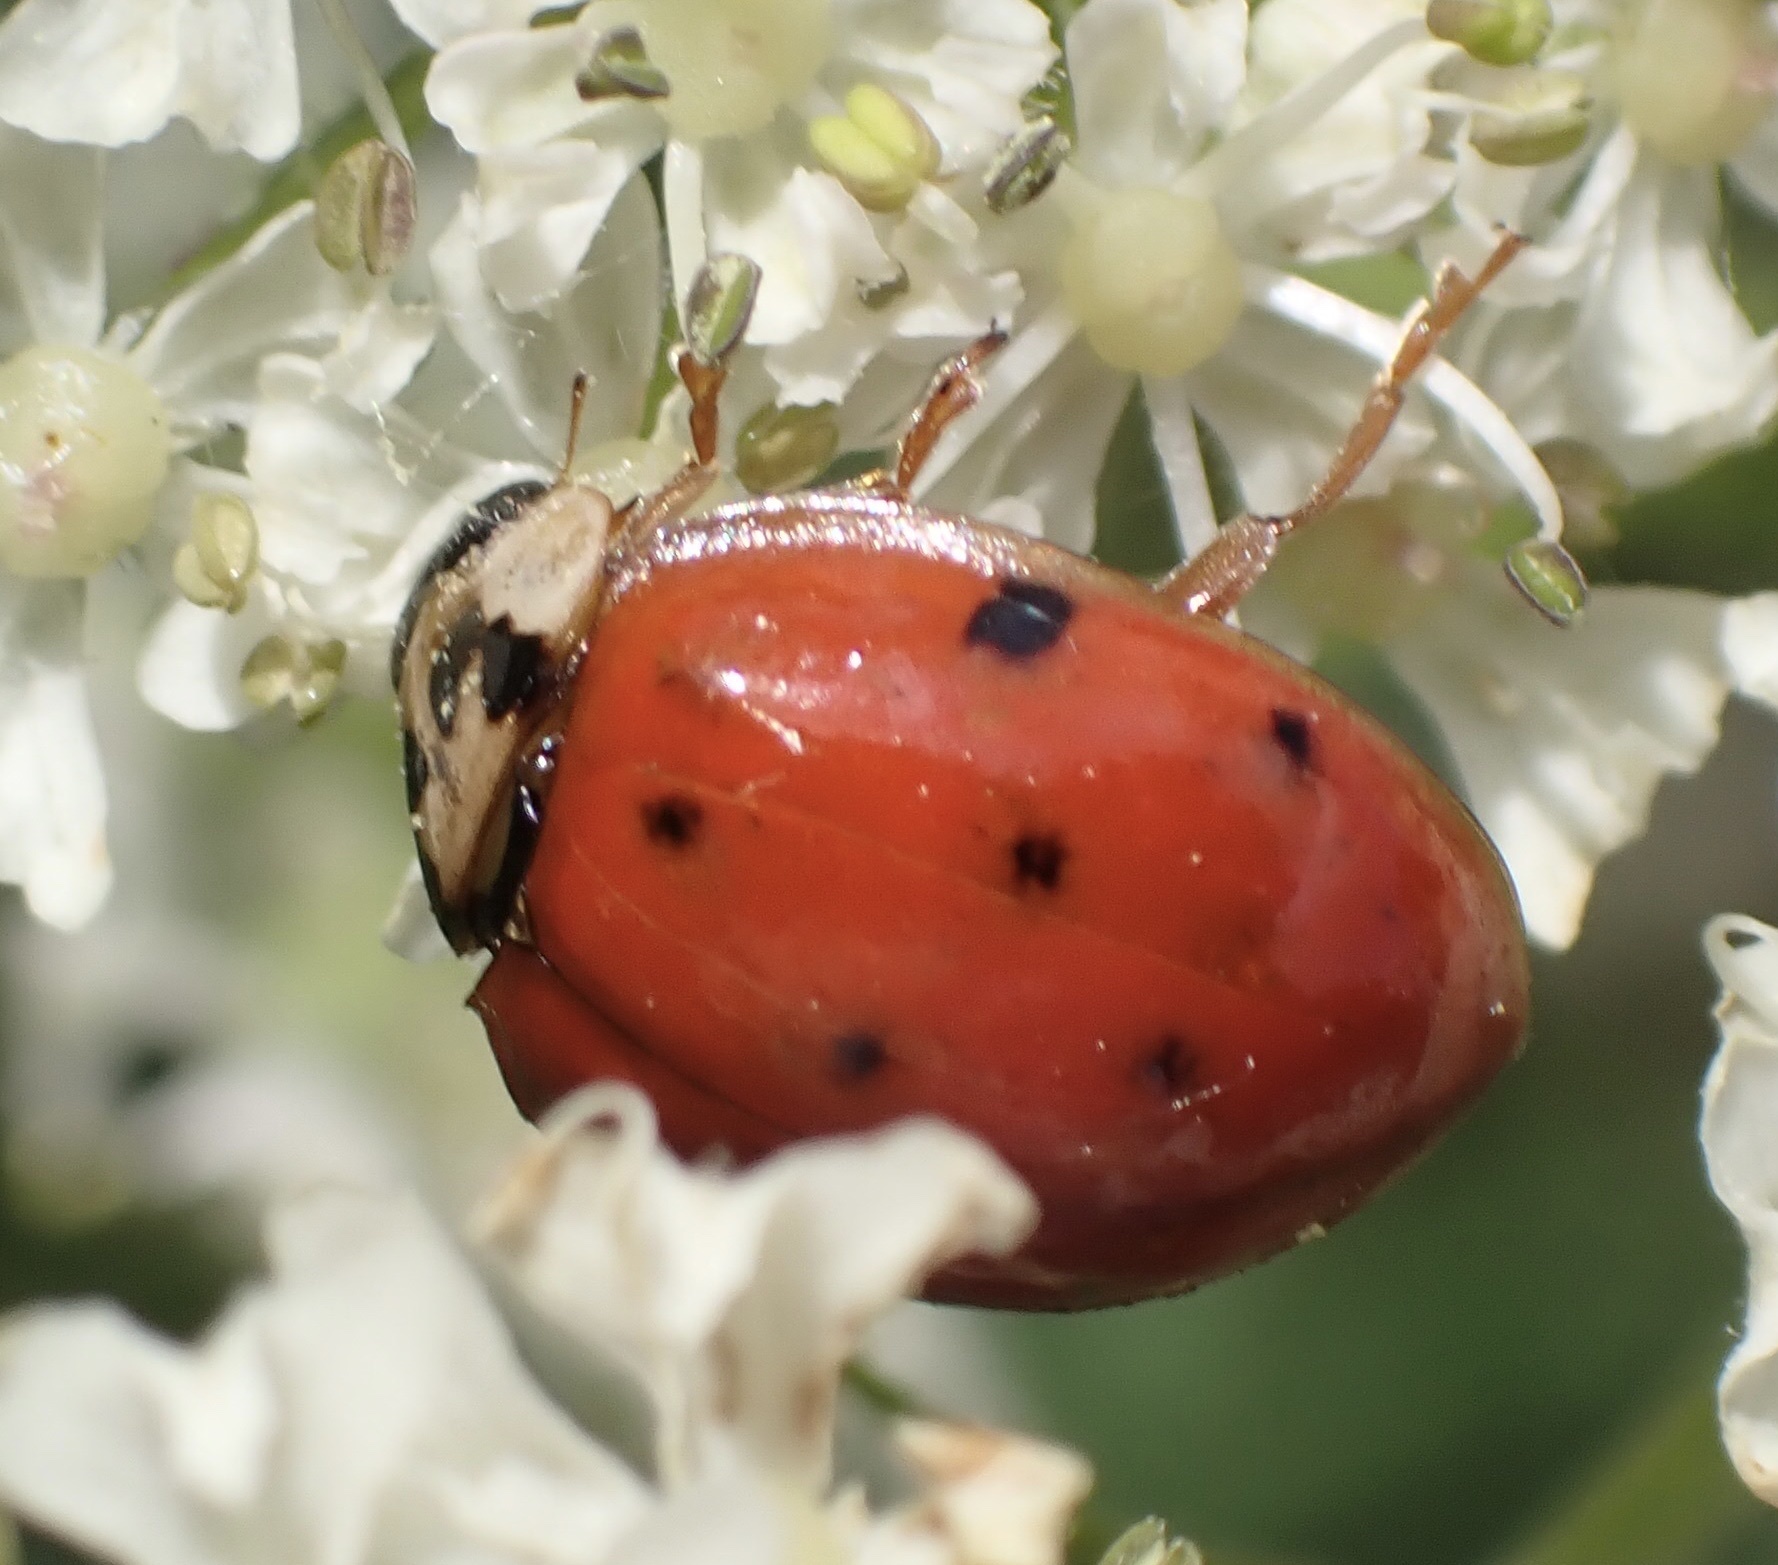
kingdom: Animalia
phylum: Arthropoda
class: Insecta
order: Coleoptera
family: Coccinellidae
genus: Harmonia
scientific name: Harmonia axyridis
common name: Harlequin ladybird
